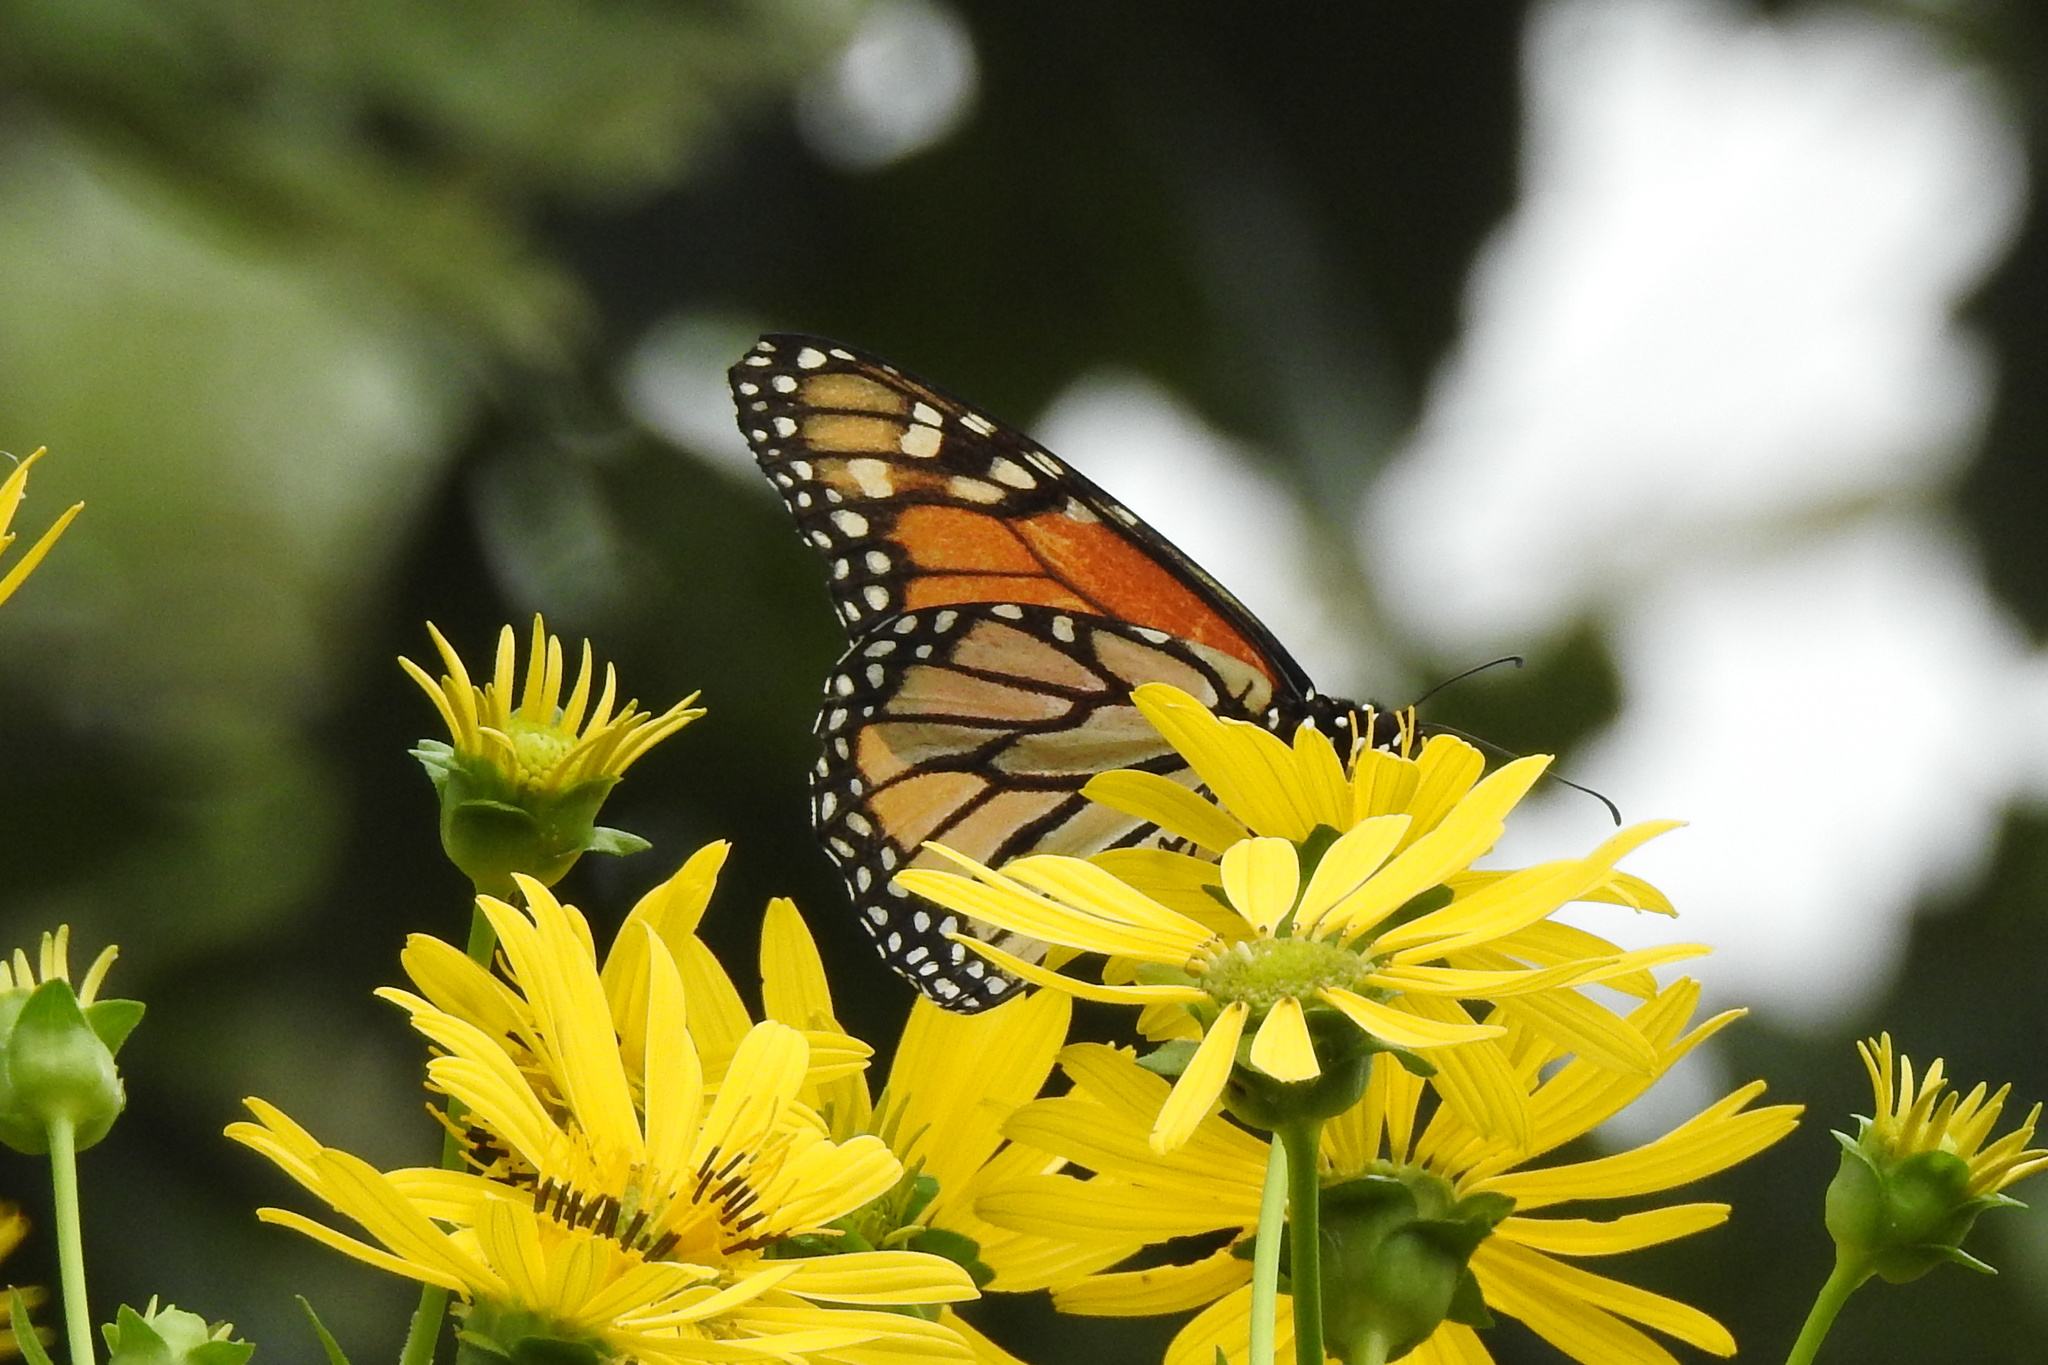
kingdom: Animalia
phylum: Arthropoda
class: Insecta
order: Lepidoptera
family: Nymphalidae
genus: Danaus
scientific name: Danaus plexippus
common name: Monarch
